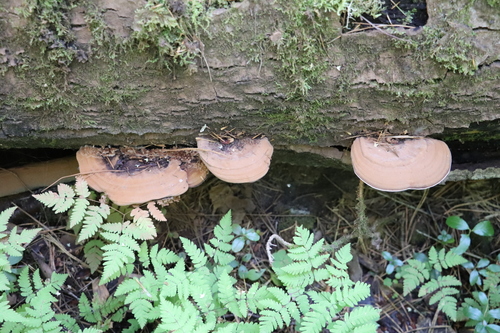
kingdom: Fungi
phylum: Basidiomycota
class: Agaricomycetes
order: Polyporales
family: Polyporaceae
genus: Ganoderma
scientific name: Ganoderma applanatum
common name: Artist's bracket
